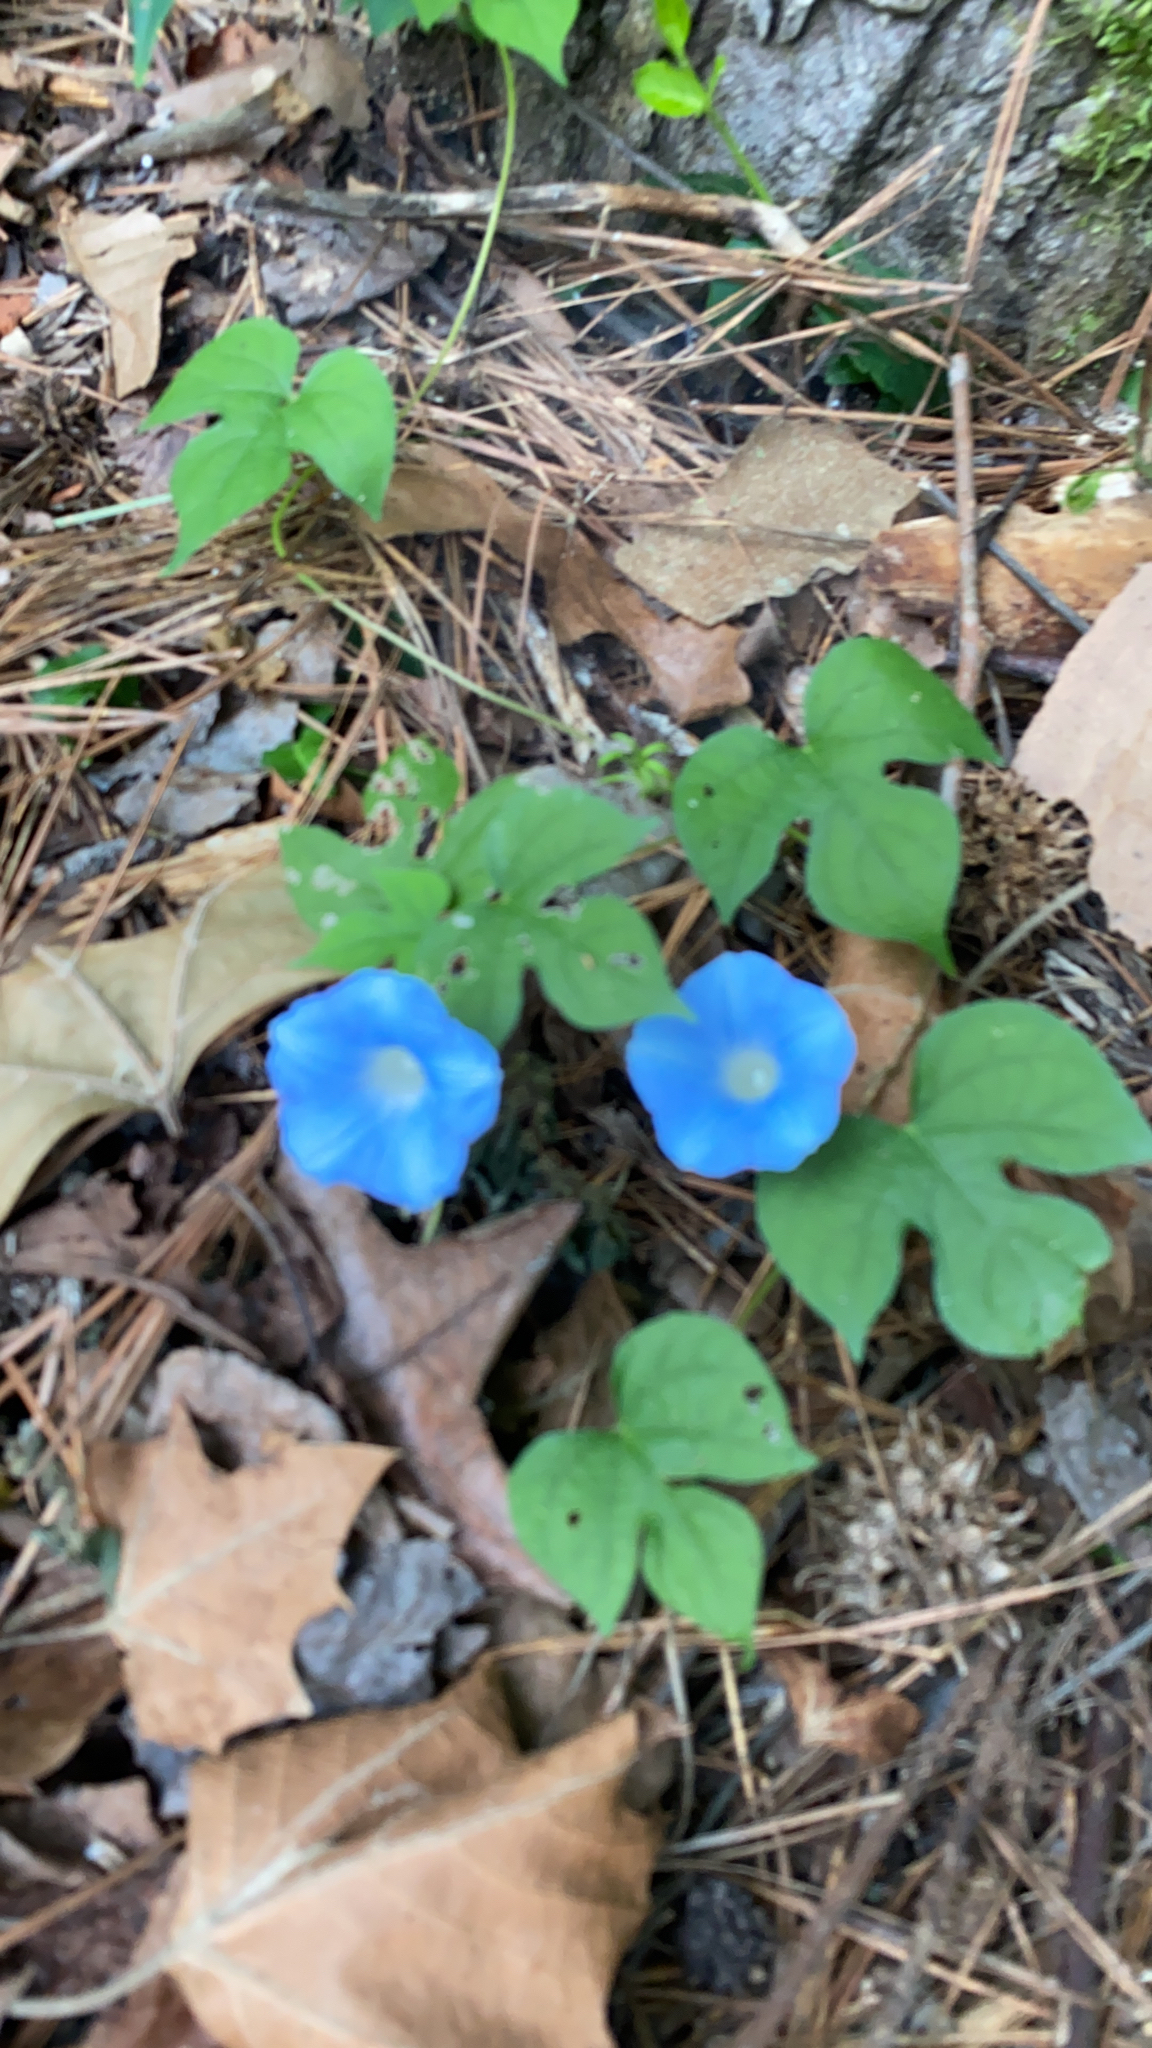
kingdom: Plantae
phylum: Tracheophyta
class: Magnoliopsida
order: Solanales
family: Convolvulaceae
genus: Ipomoea
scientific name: Ipomoea hederacea
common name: Ivy-leaved morning-glory
